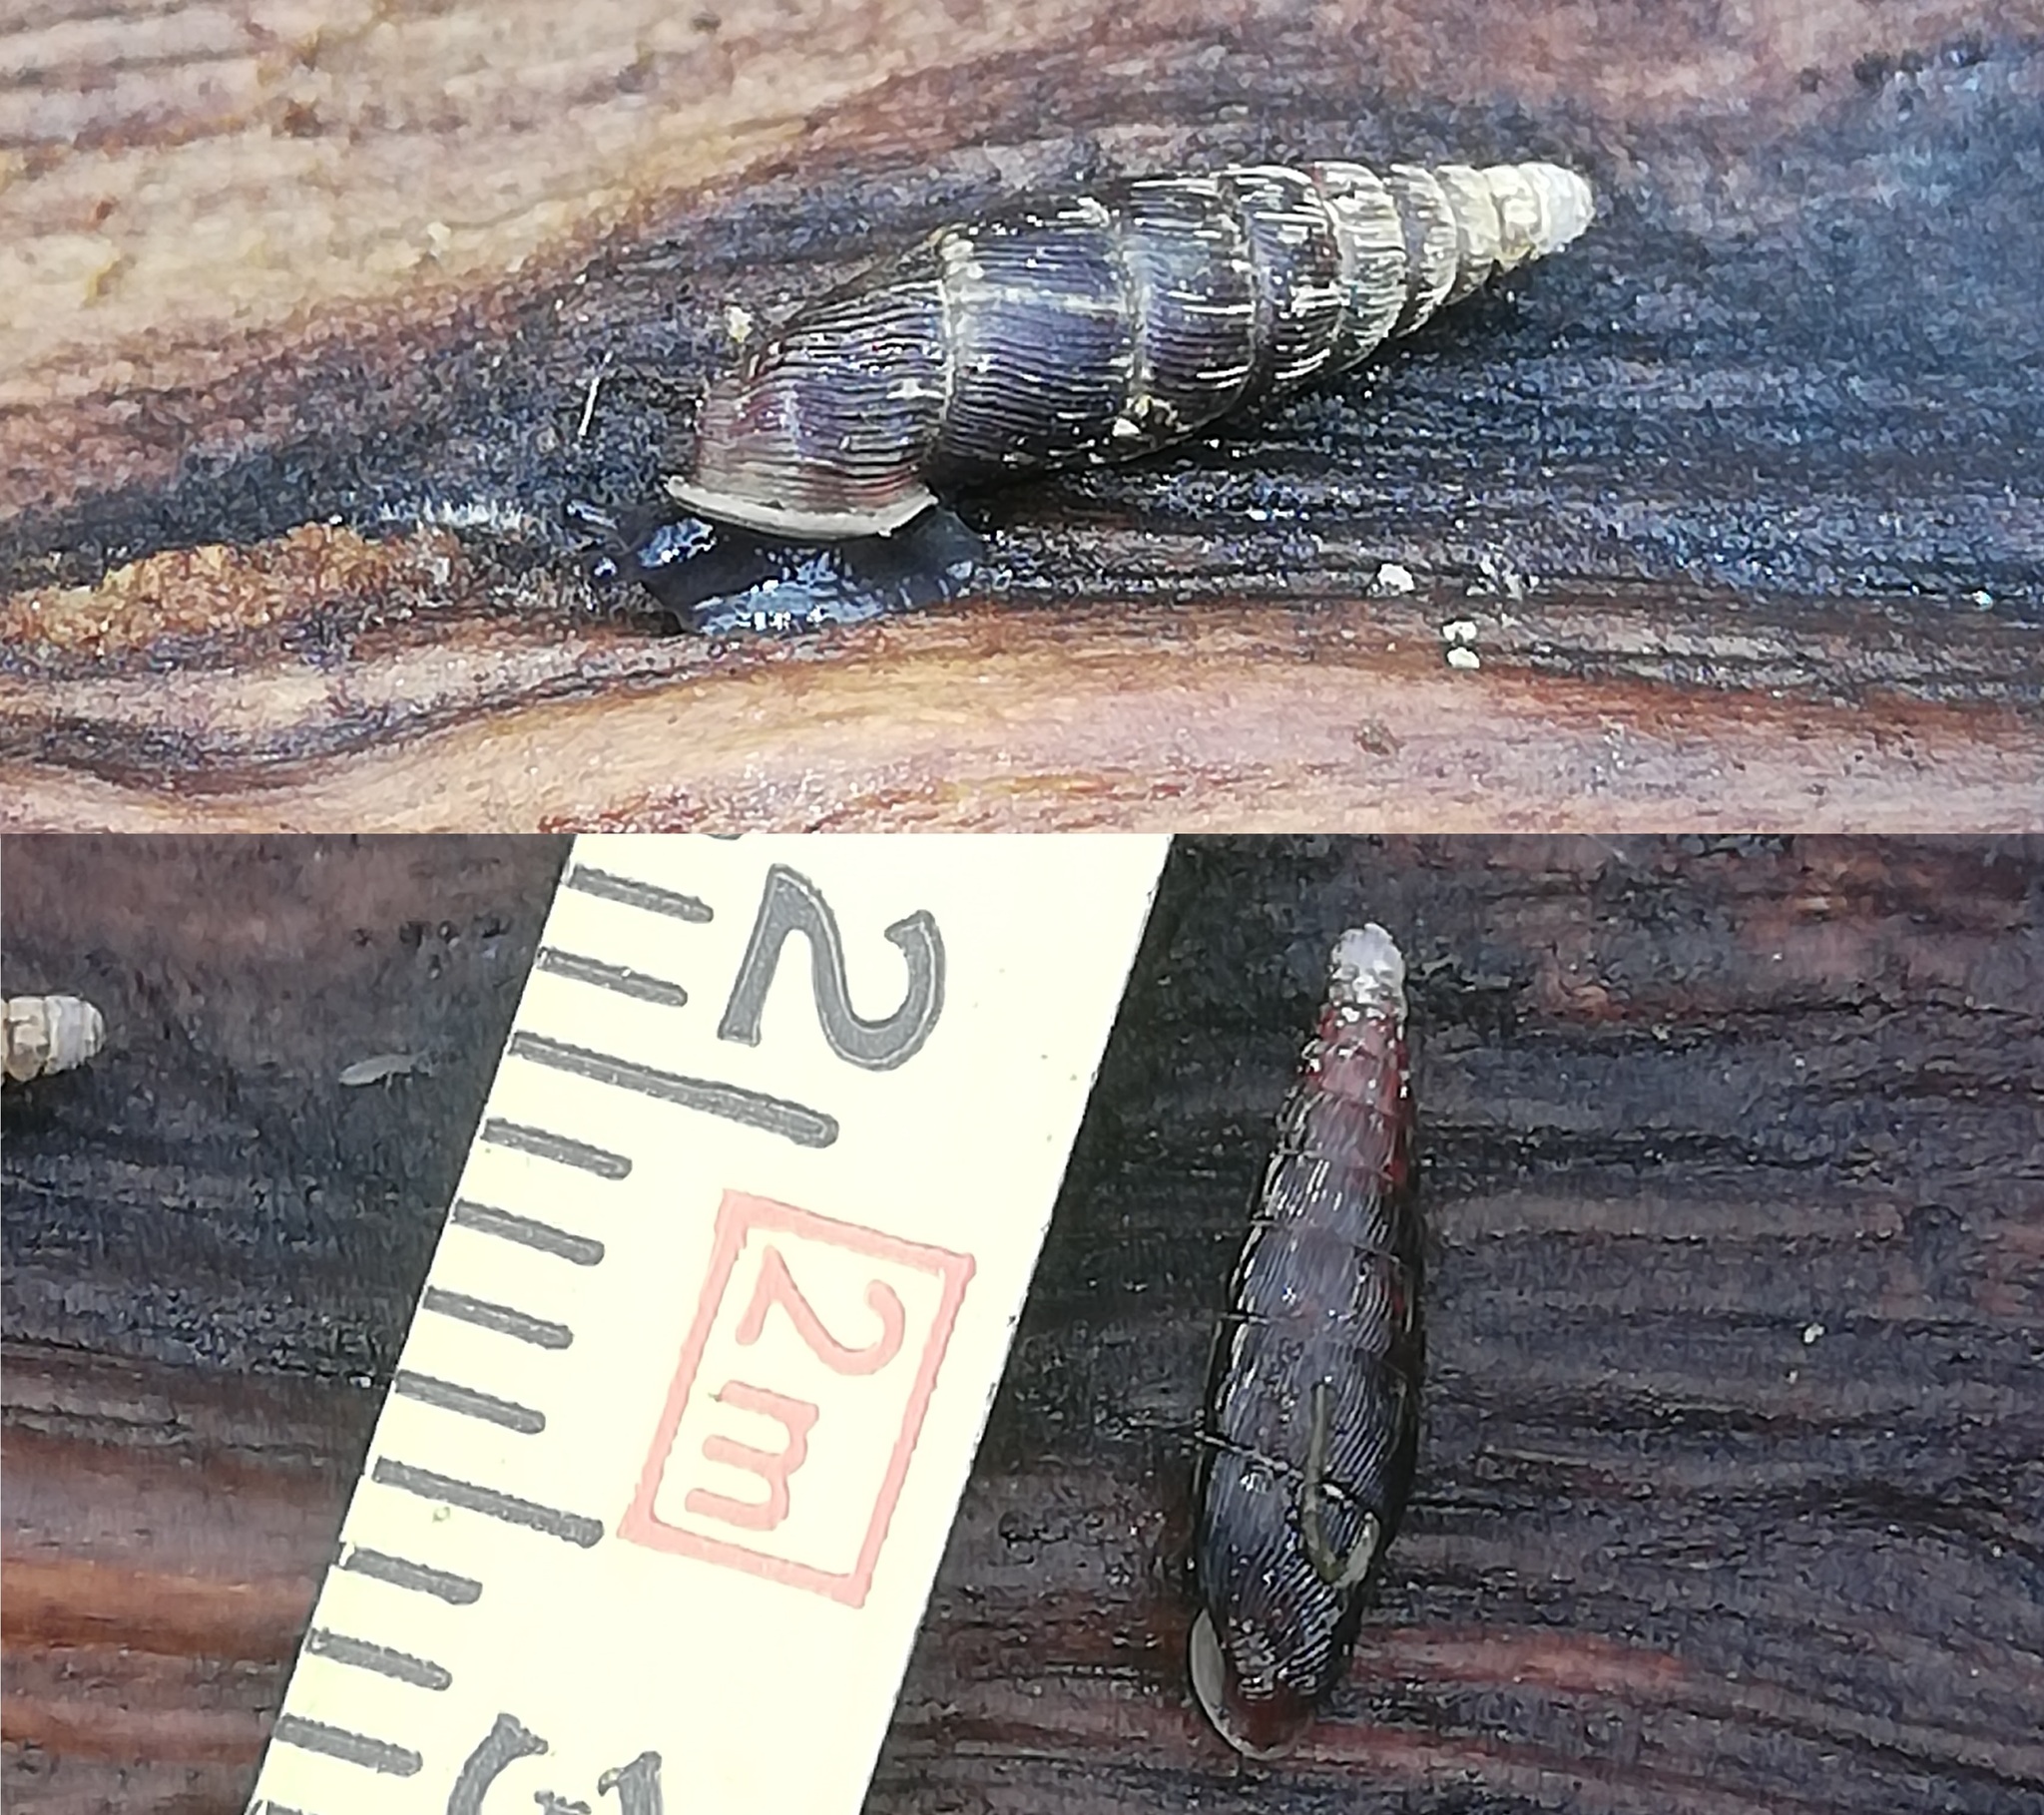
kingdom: Animalia
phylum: Mollusca
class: Gastropoda
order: Stylommatophora
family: Clausiliidae
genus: Clausilia
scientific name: Clausilia bidentata
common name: Two-toothed door snail
